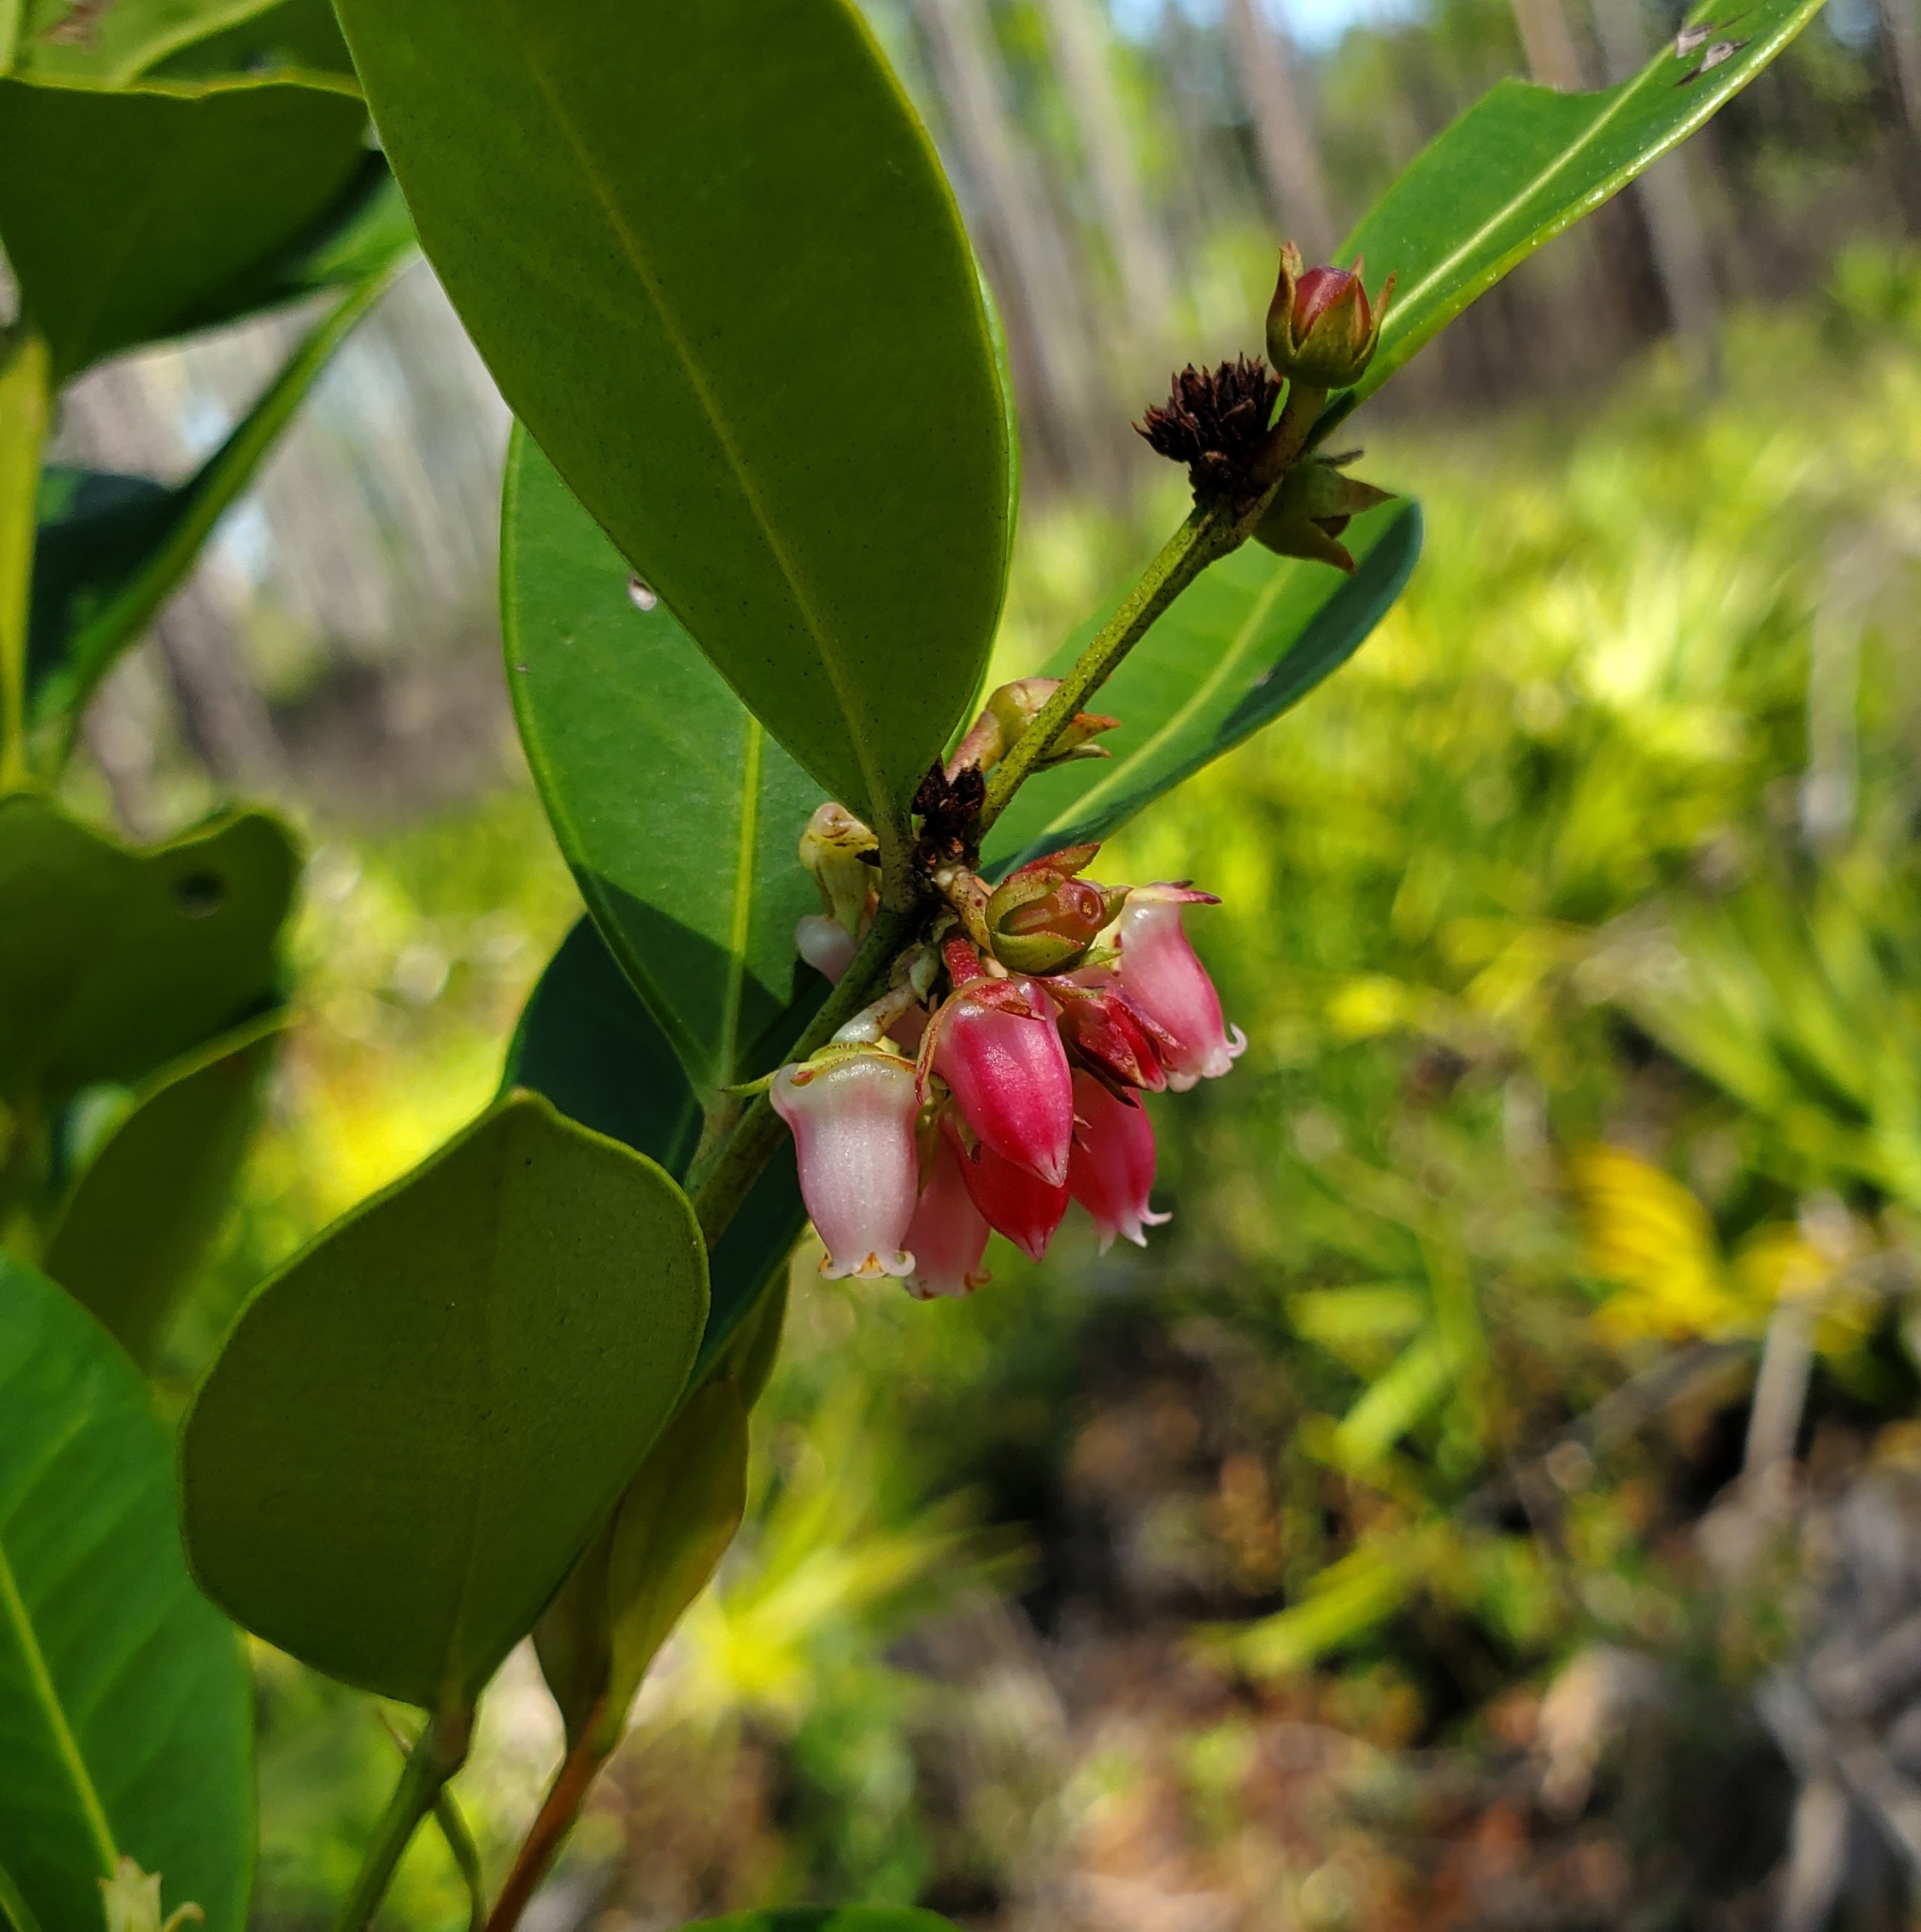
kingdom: Plantae
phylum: Tracheophyta
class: Magnoliopsida
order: Ericales
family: Ericaceae
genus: Lyonia
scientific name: Lyonia lucida
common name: Fetterbush
